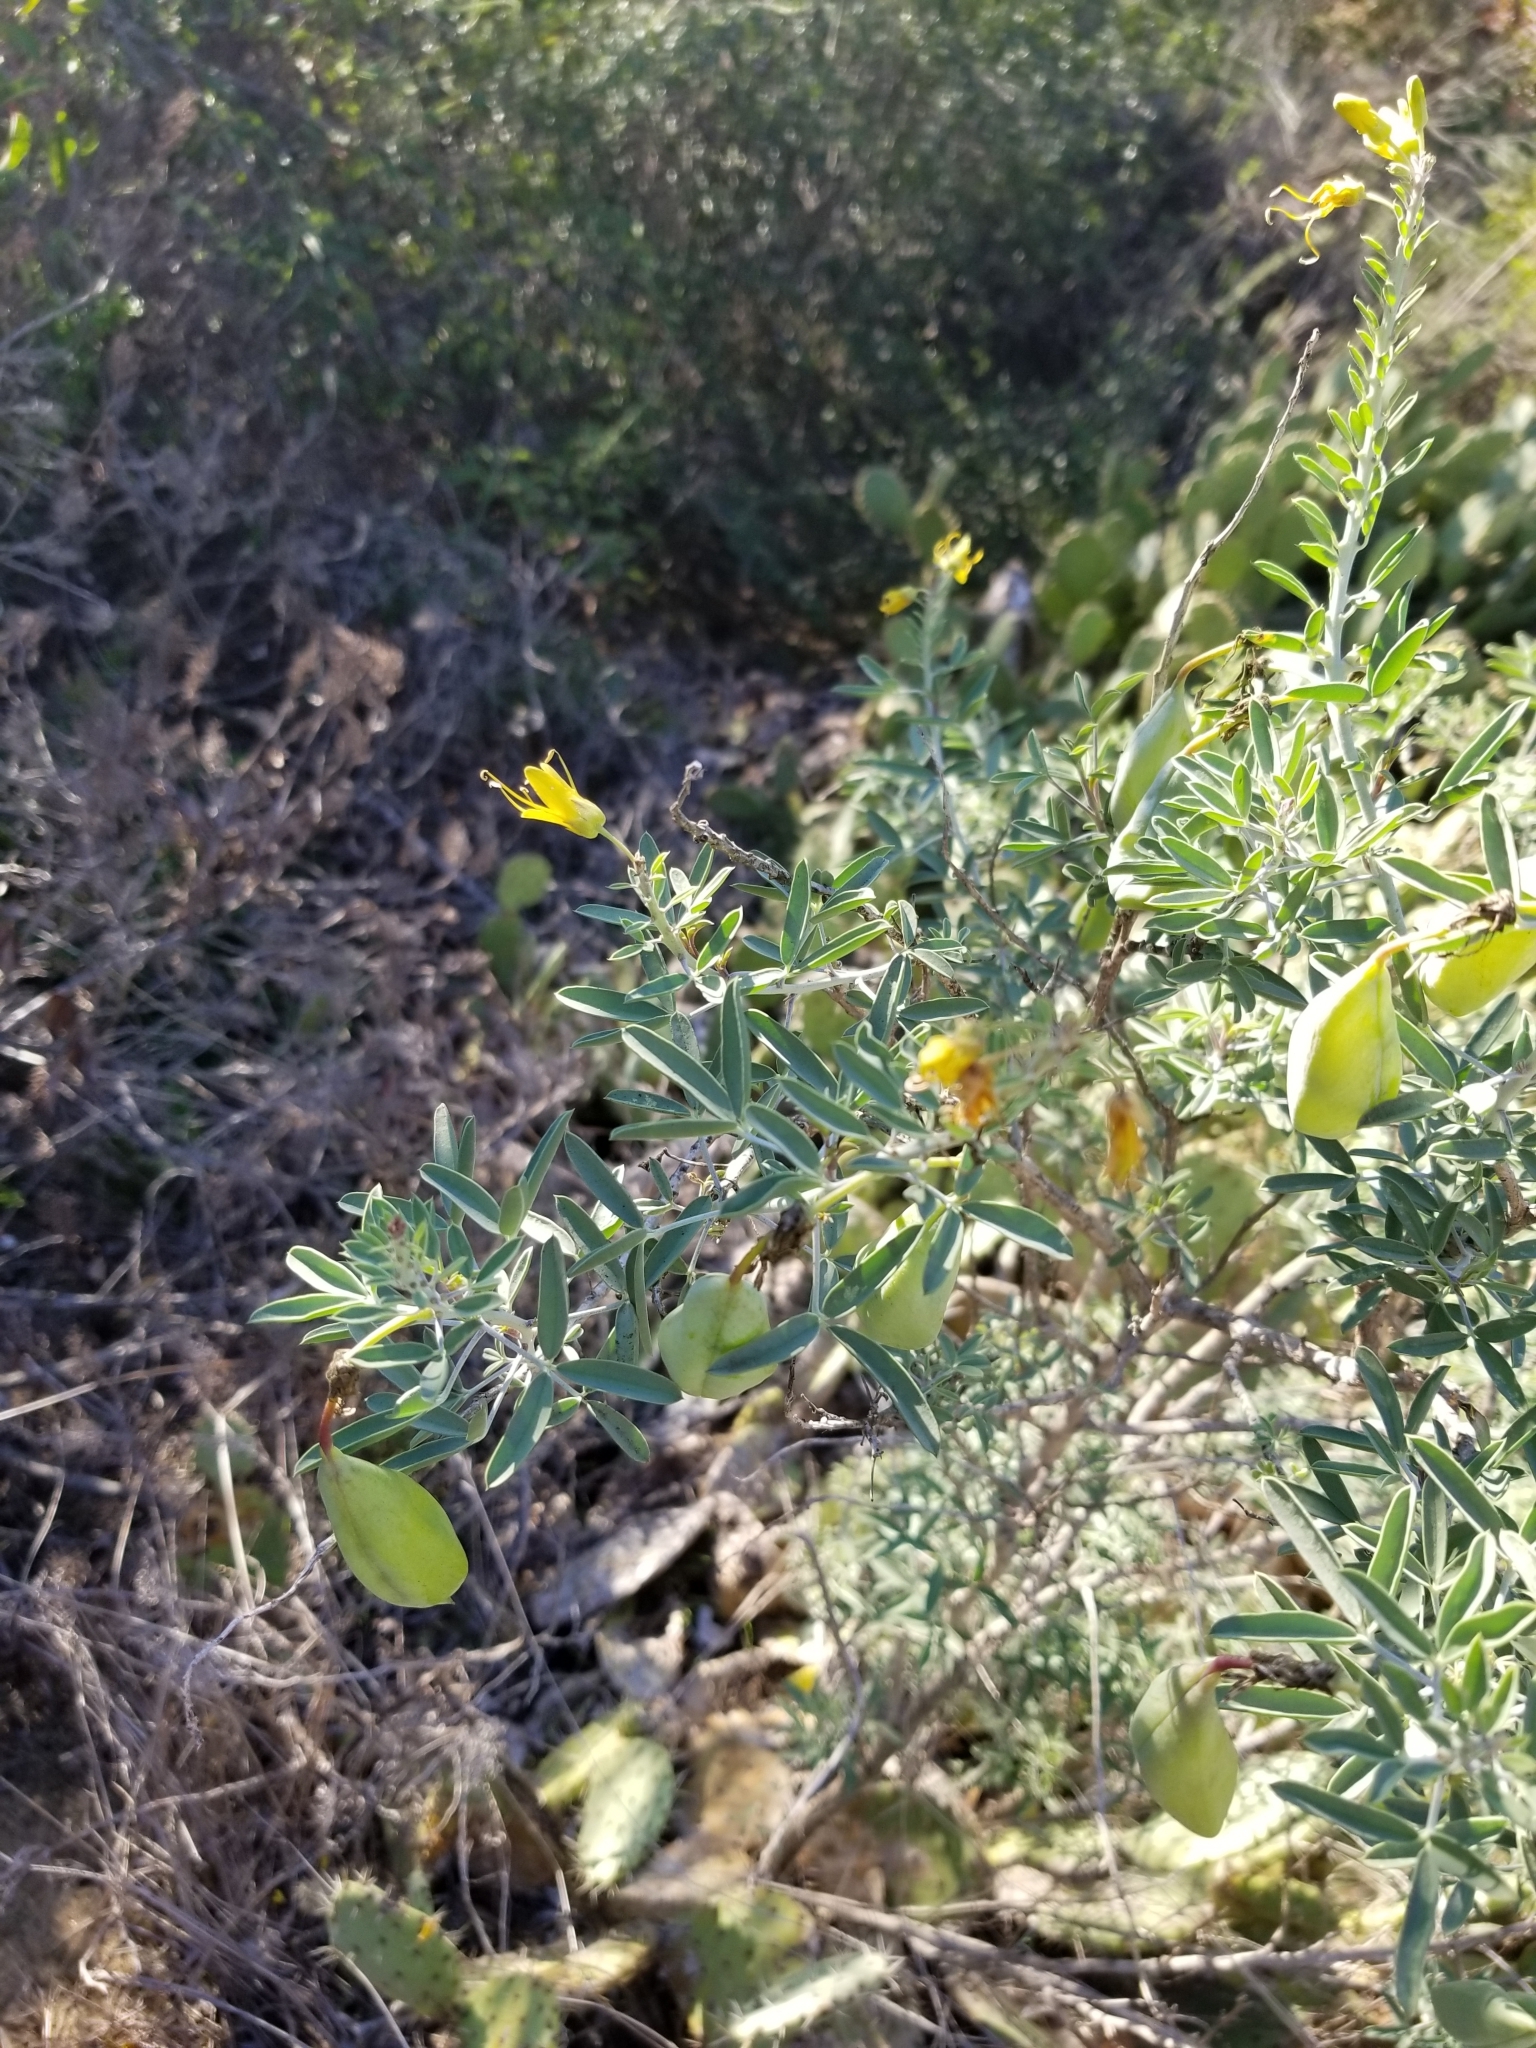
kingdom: Plantae
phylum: Tracheophyta
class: Magnoliopsida
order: Brassicales
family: Cleomaceae
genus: Cleomella
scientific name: Cleomella arborea
